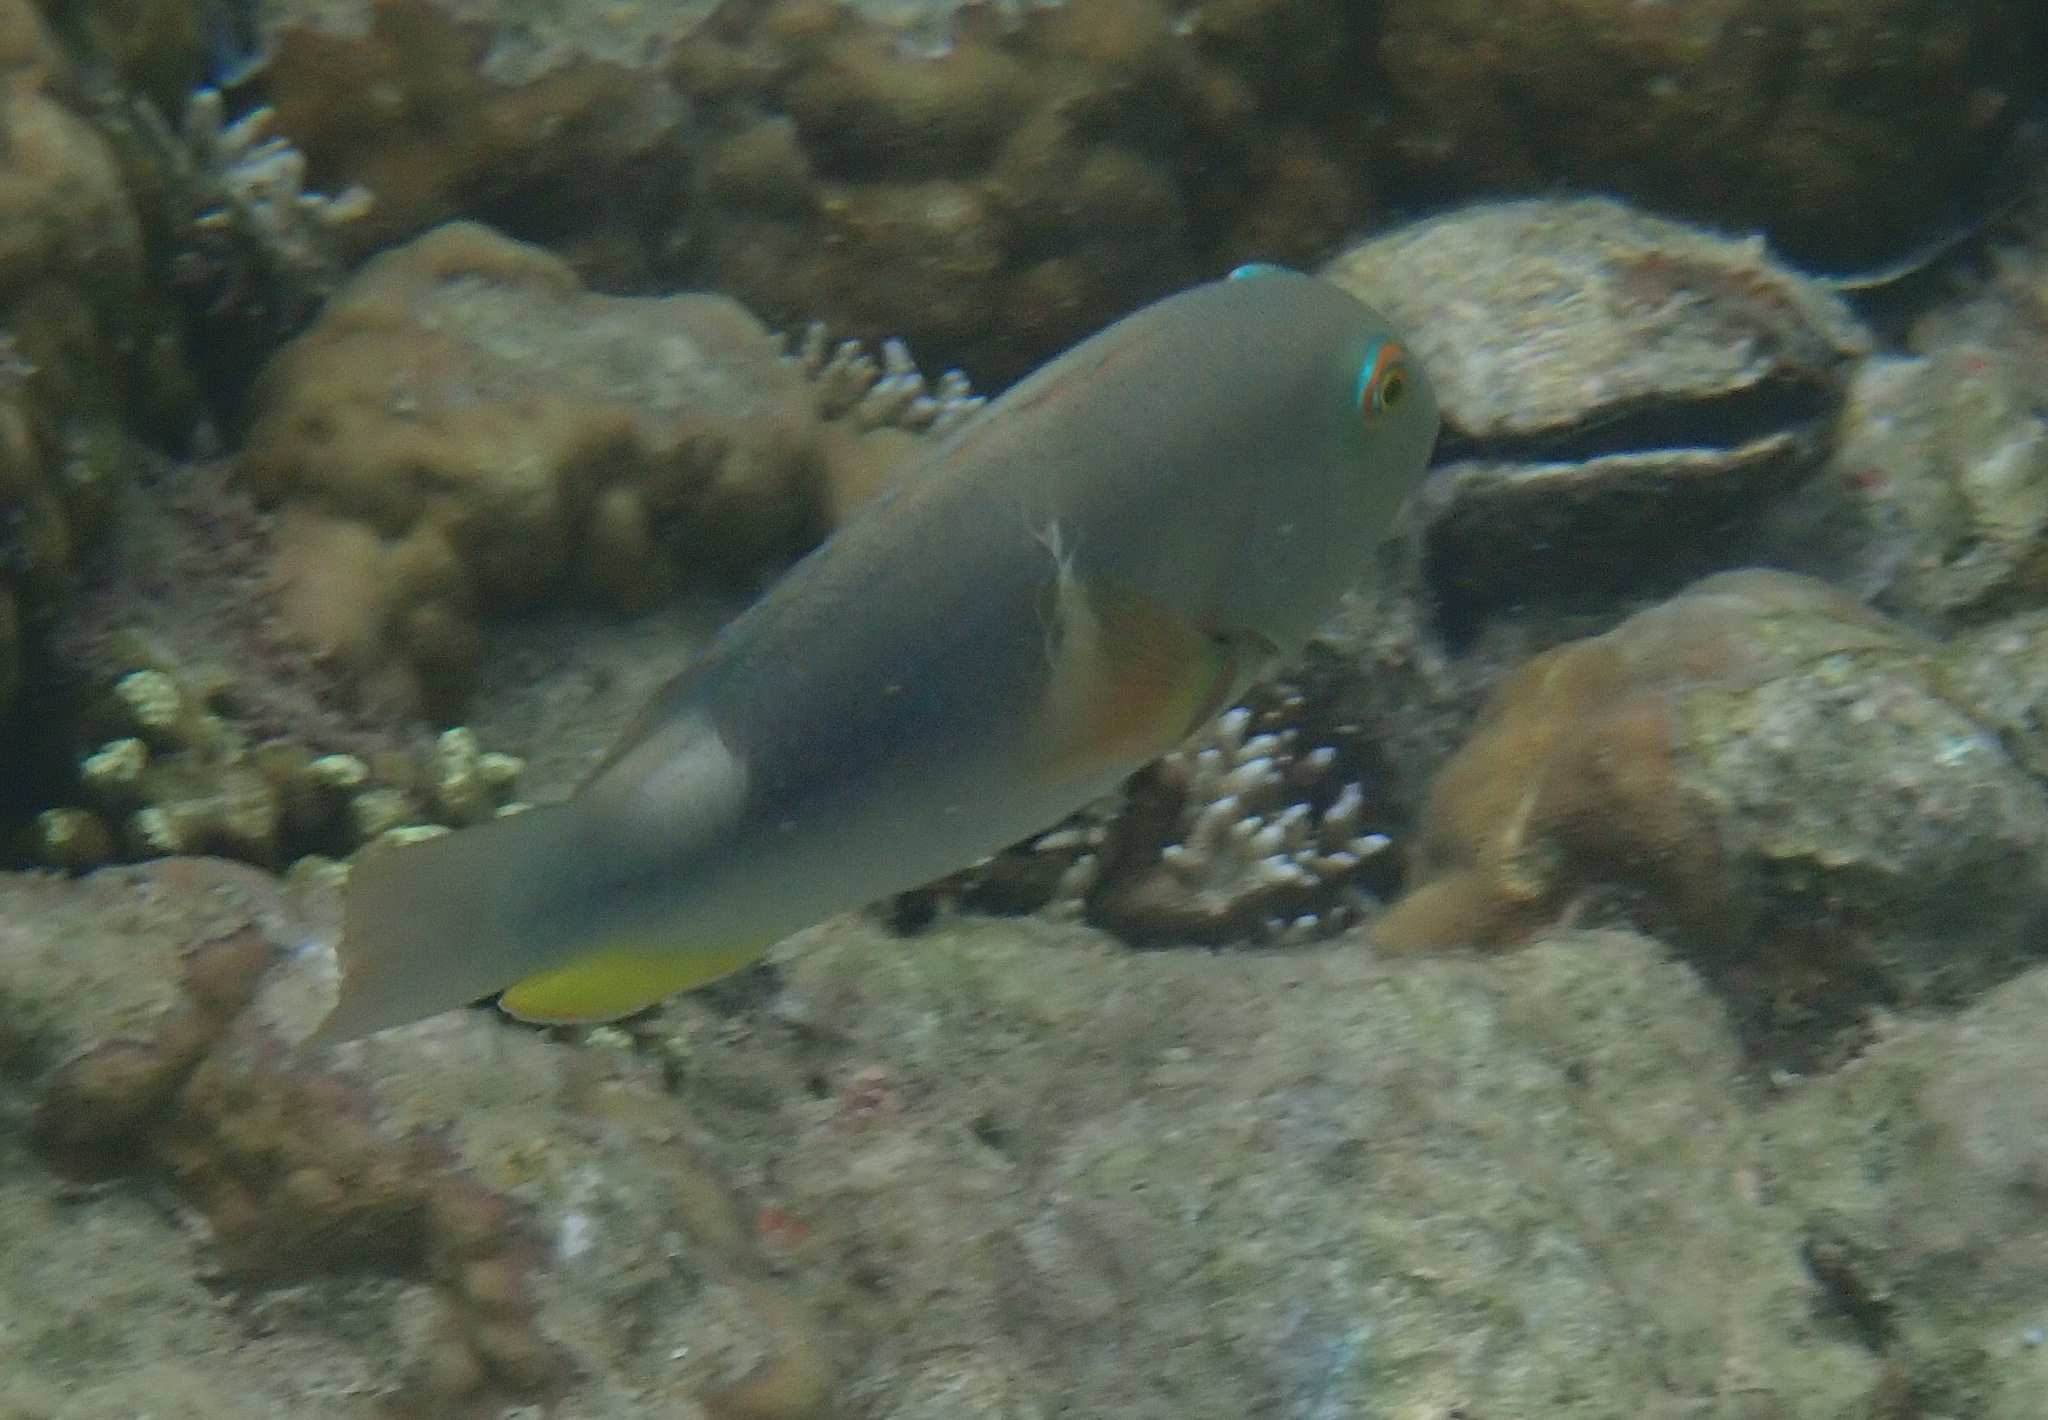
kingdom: Animalia
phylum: Chordata
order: Perciformes
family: Labridae
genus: Choerodon
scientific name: Choerodon anchorago
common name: Anchor tuskfish
